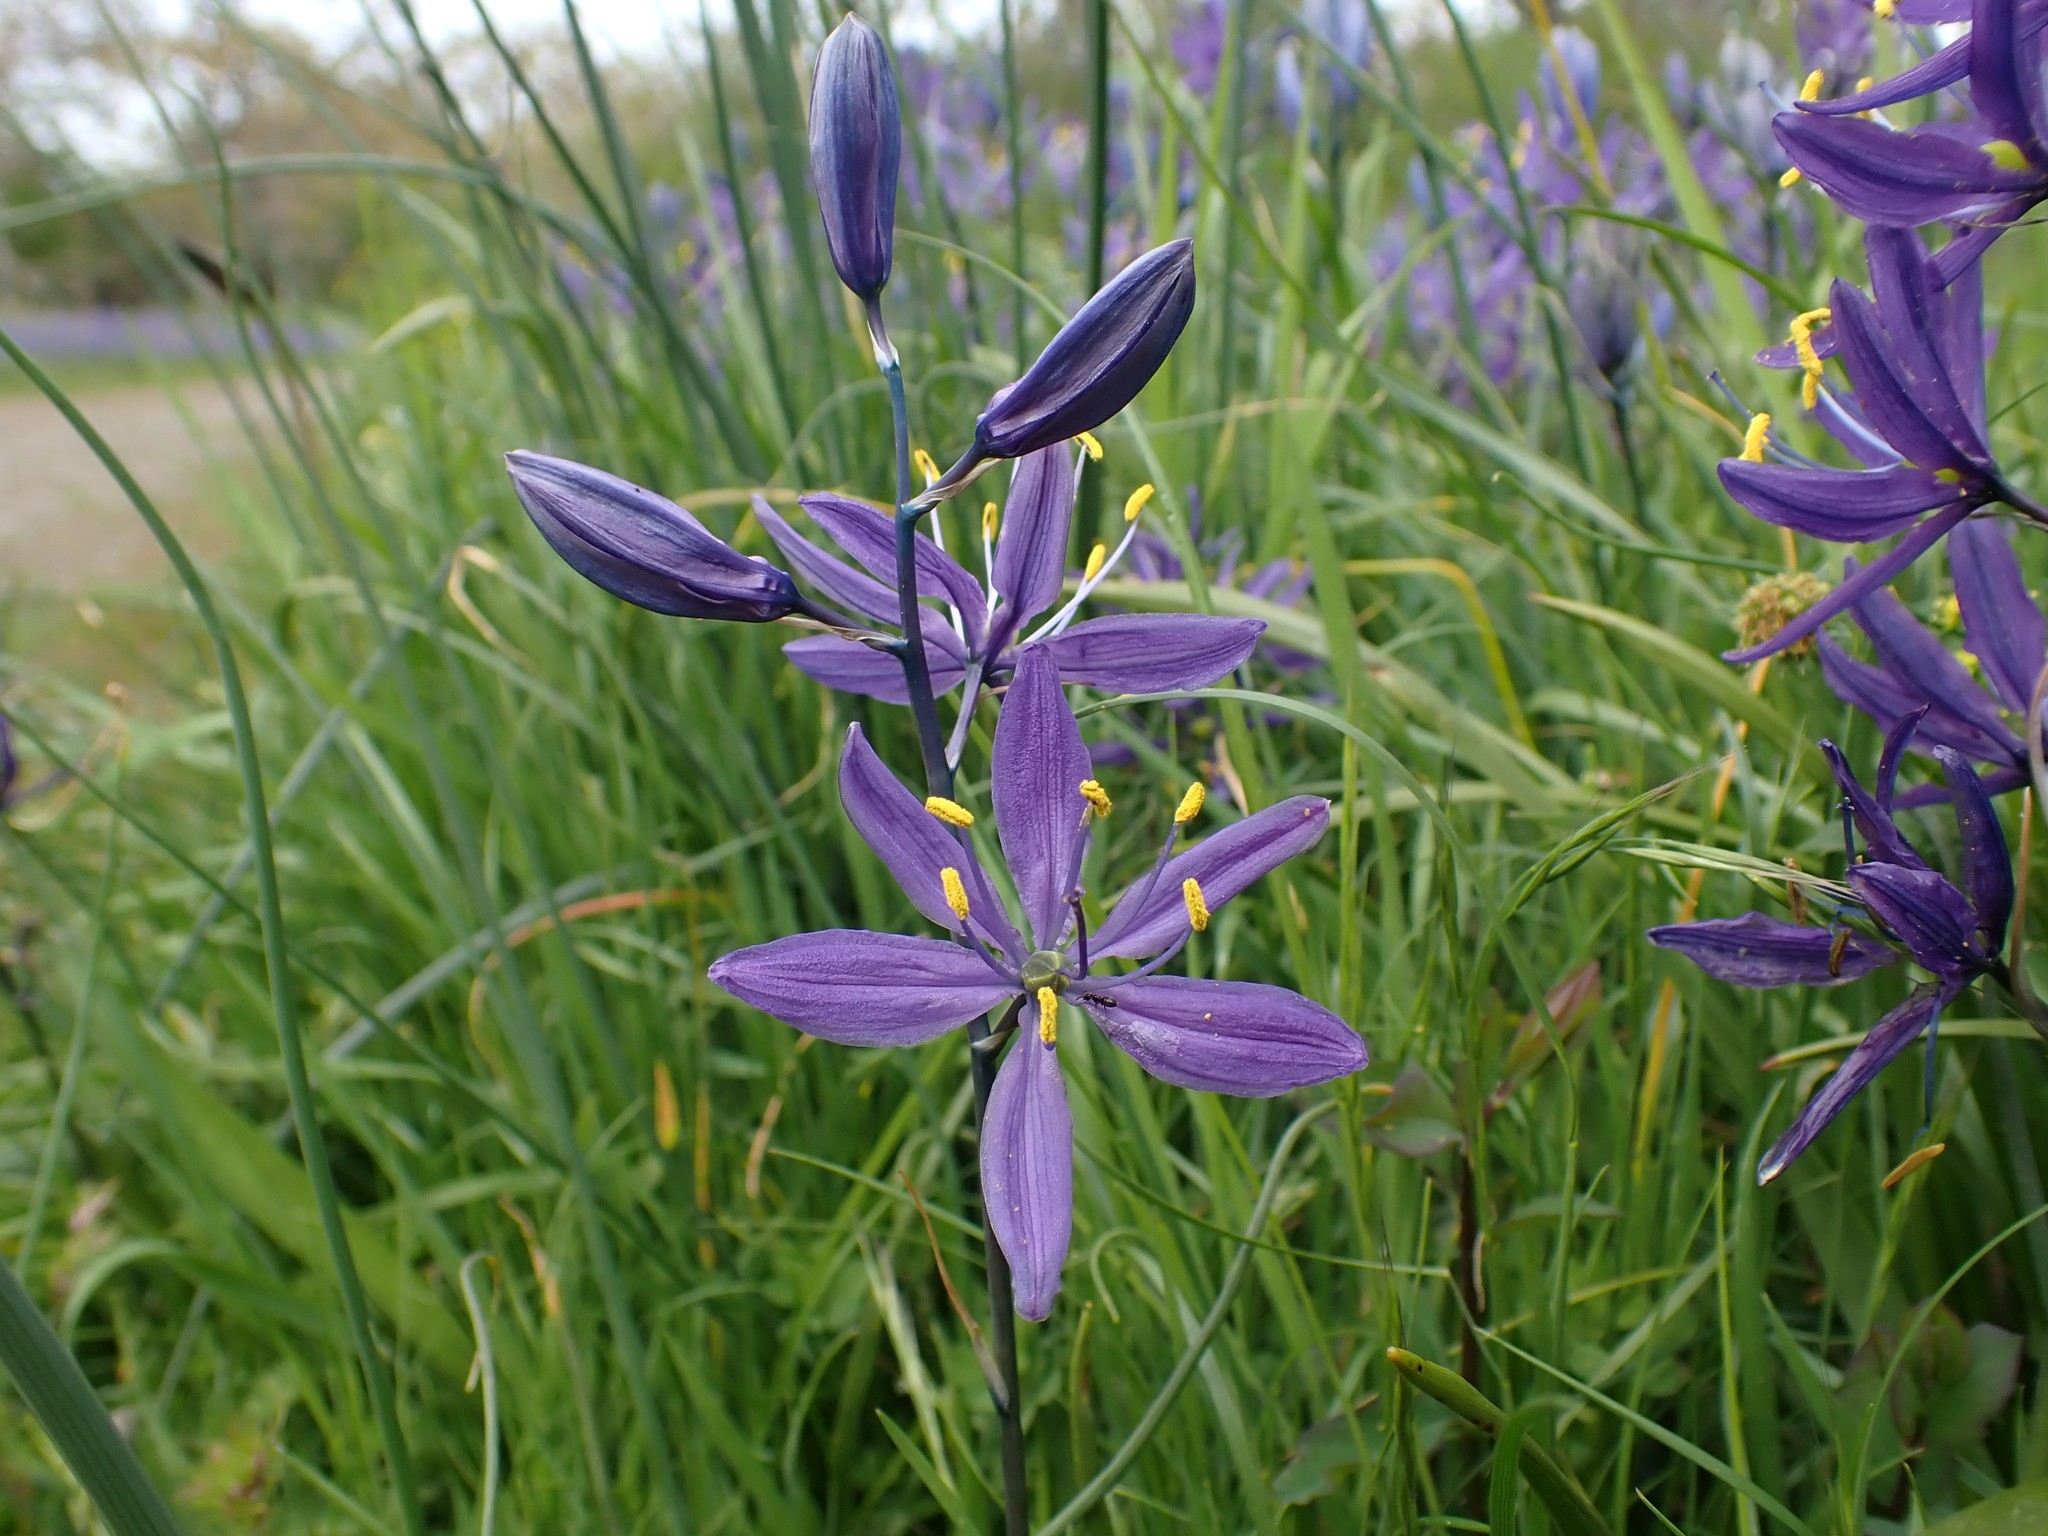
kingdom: Plantae
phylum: Tracheophyta
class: Liliopsida
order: Asparagales
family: Asparagaceae
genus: Camassia
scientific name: Camassia quamash
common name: Common camas
